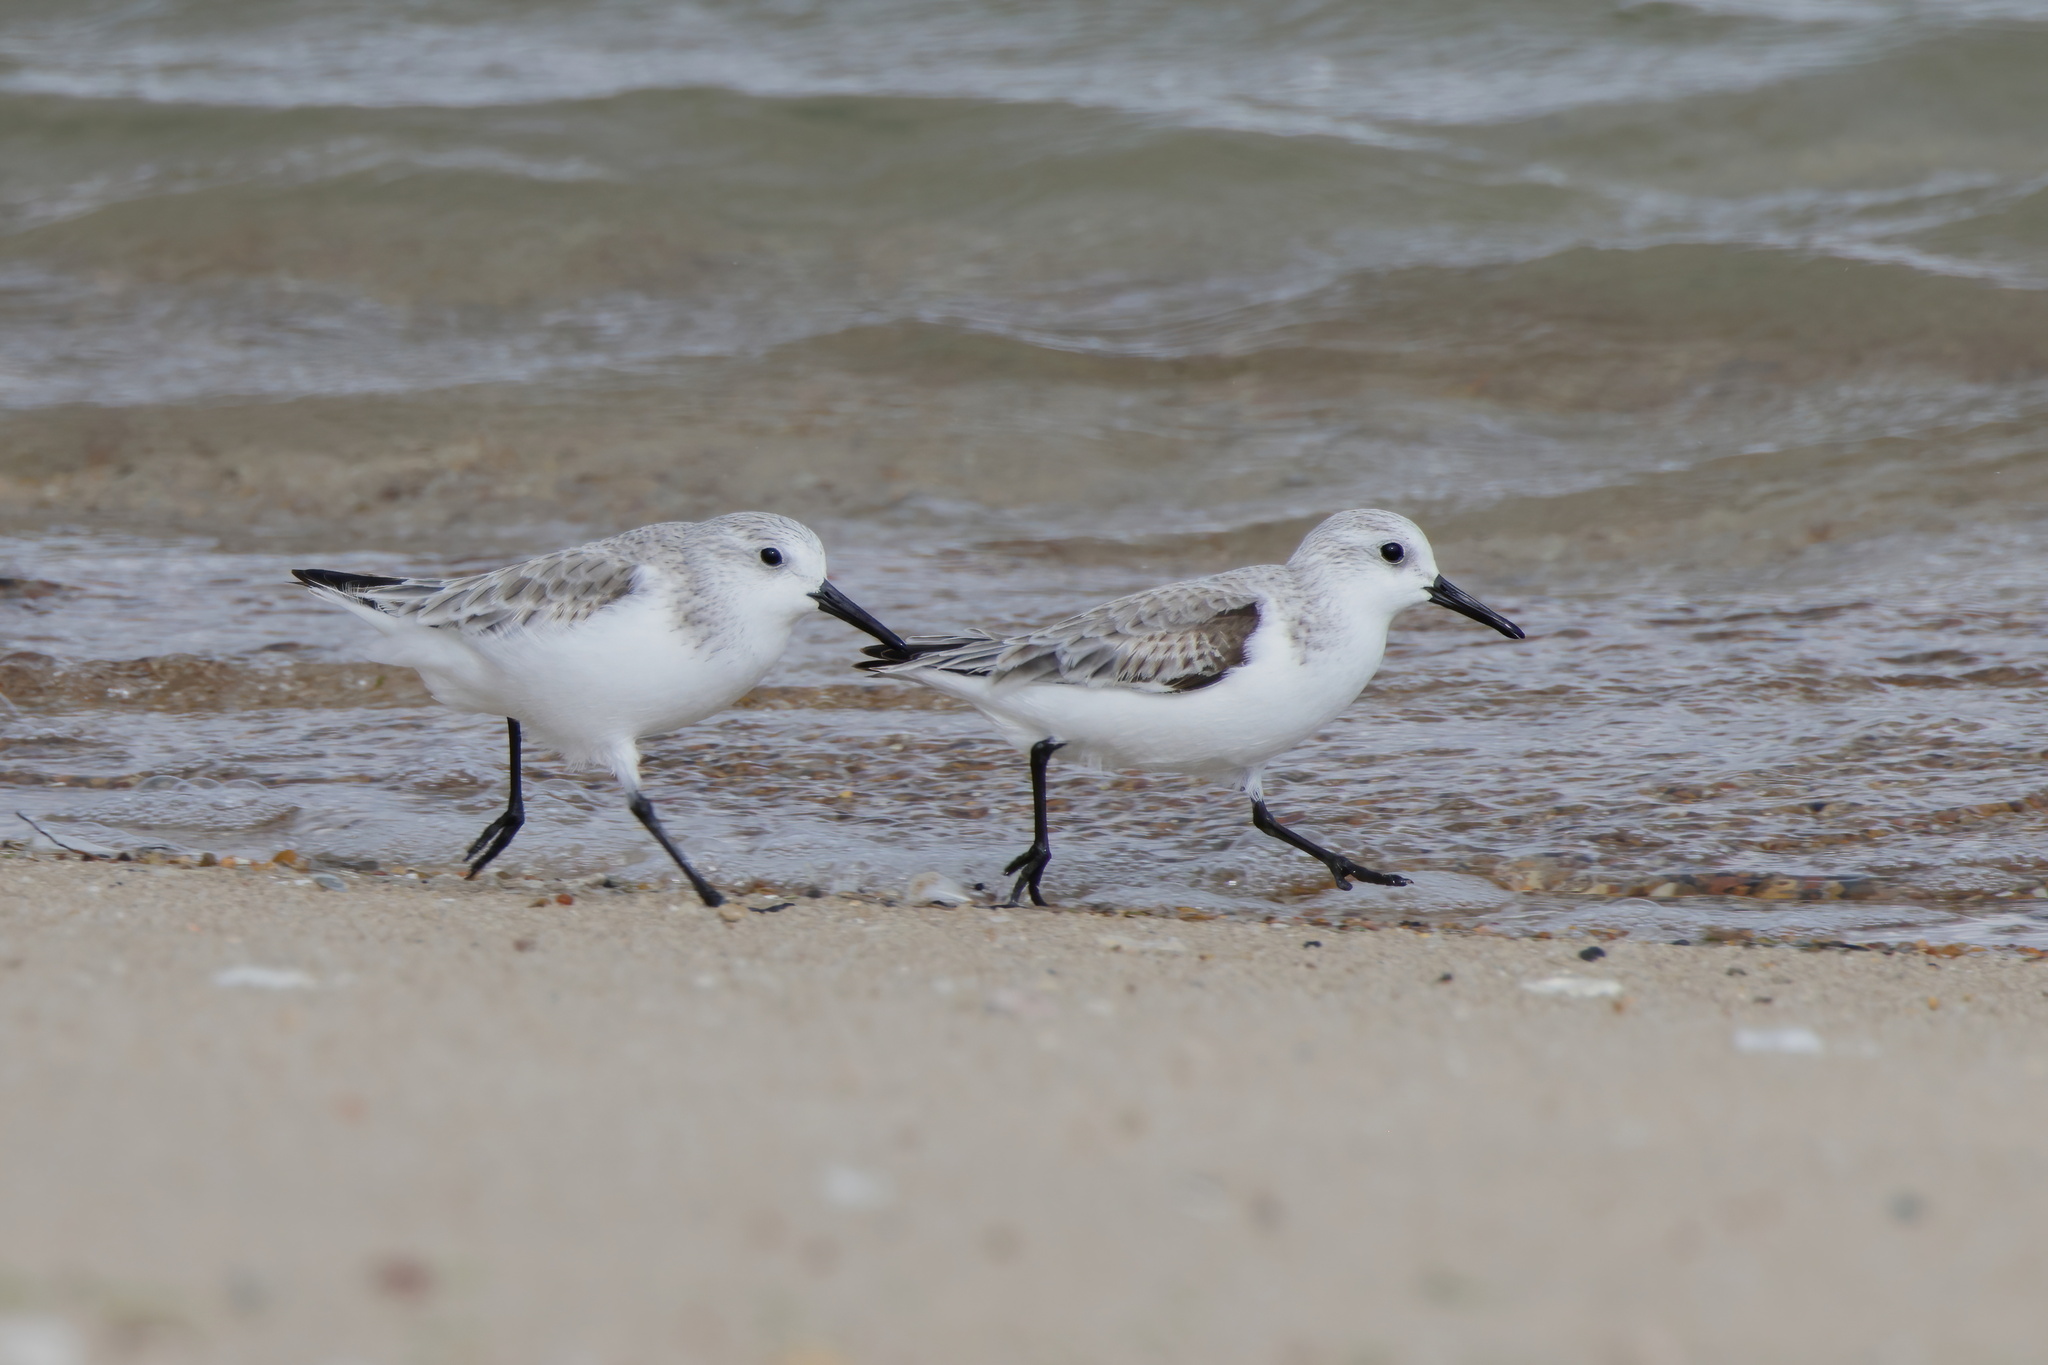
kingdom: Animalia
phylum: Chordata
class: Aves
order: Charadriiformes
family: Scolopacidae
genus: Calidris
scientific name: Calidris alba
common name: Sanderling
